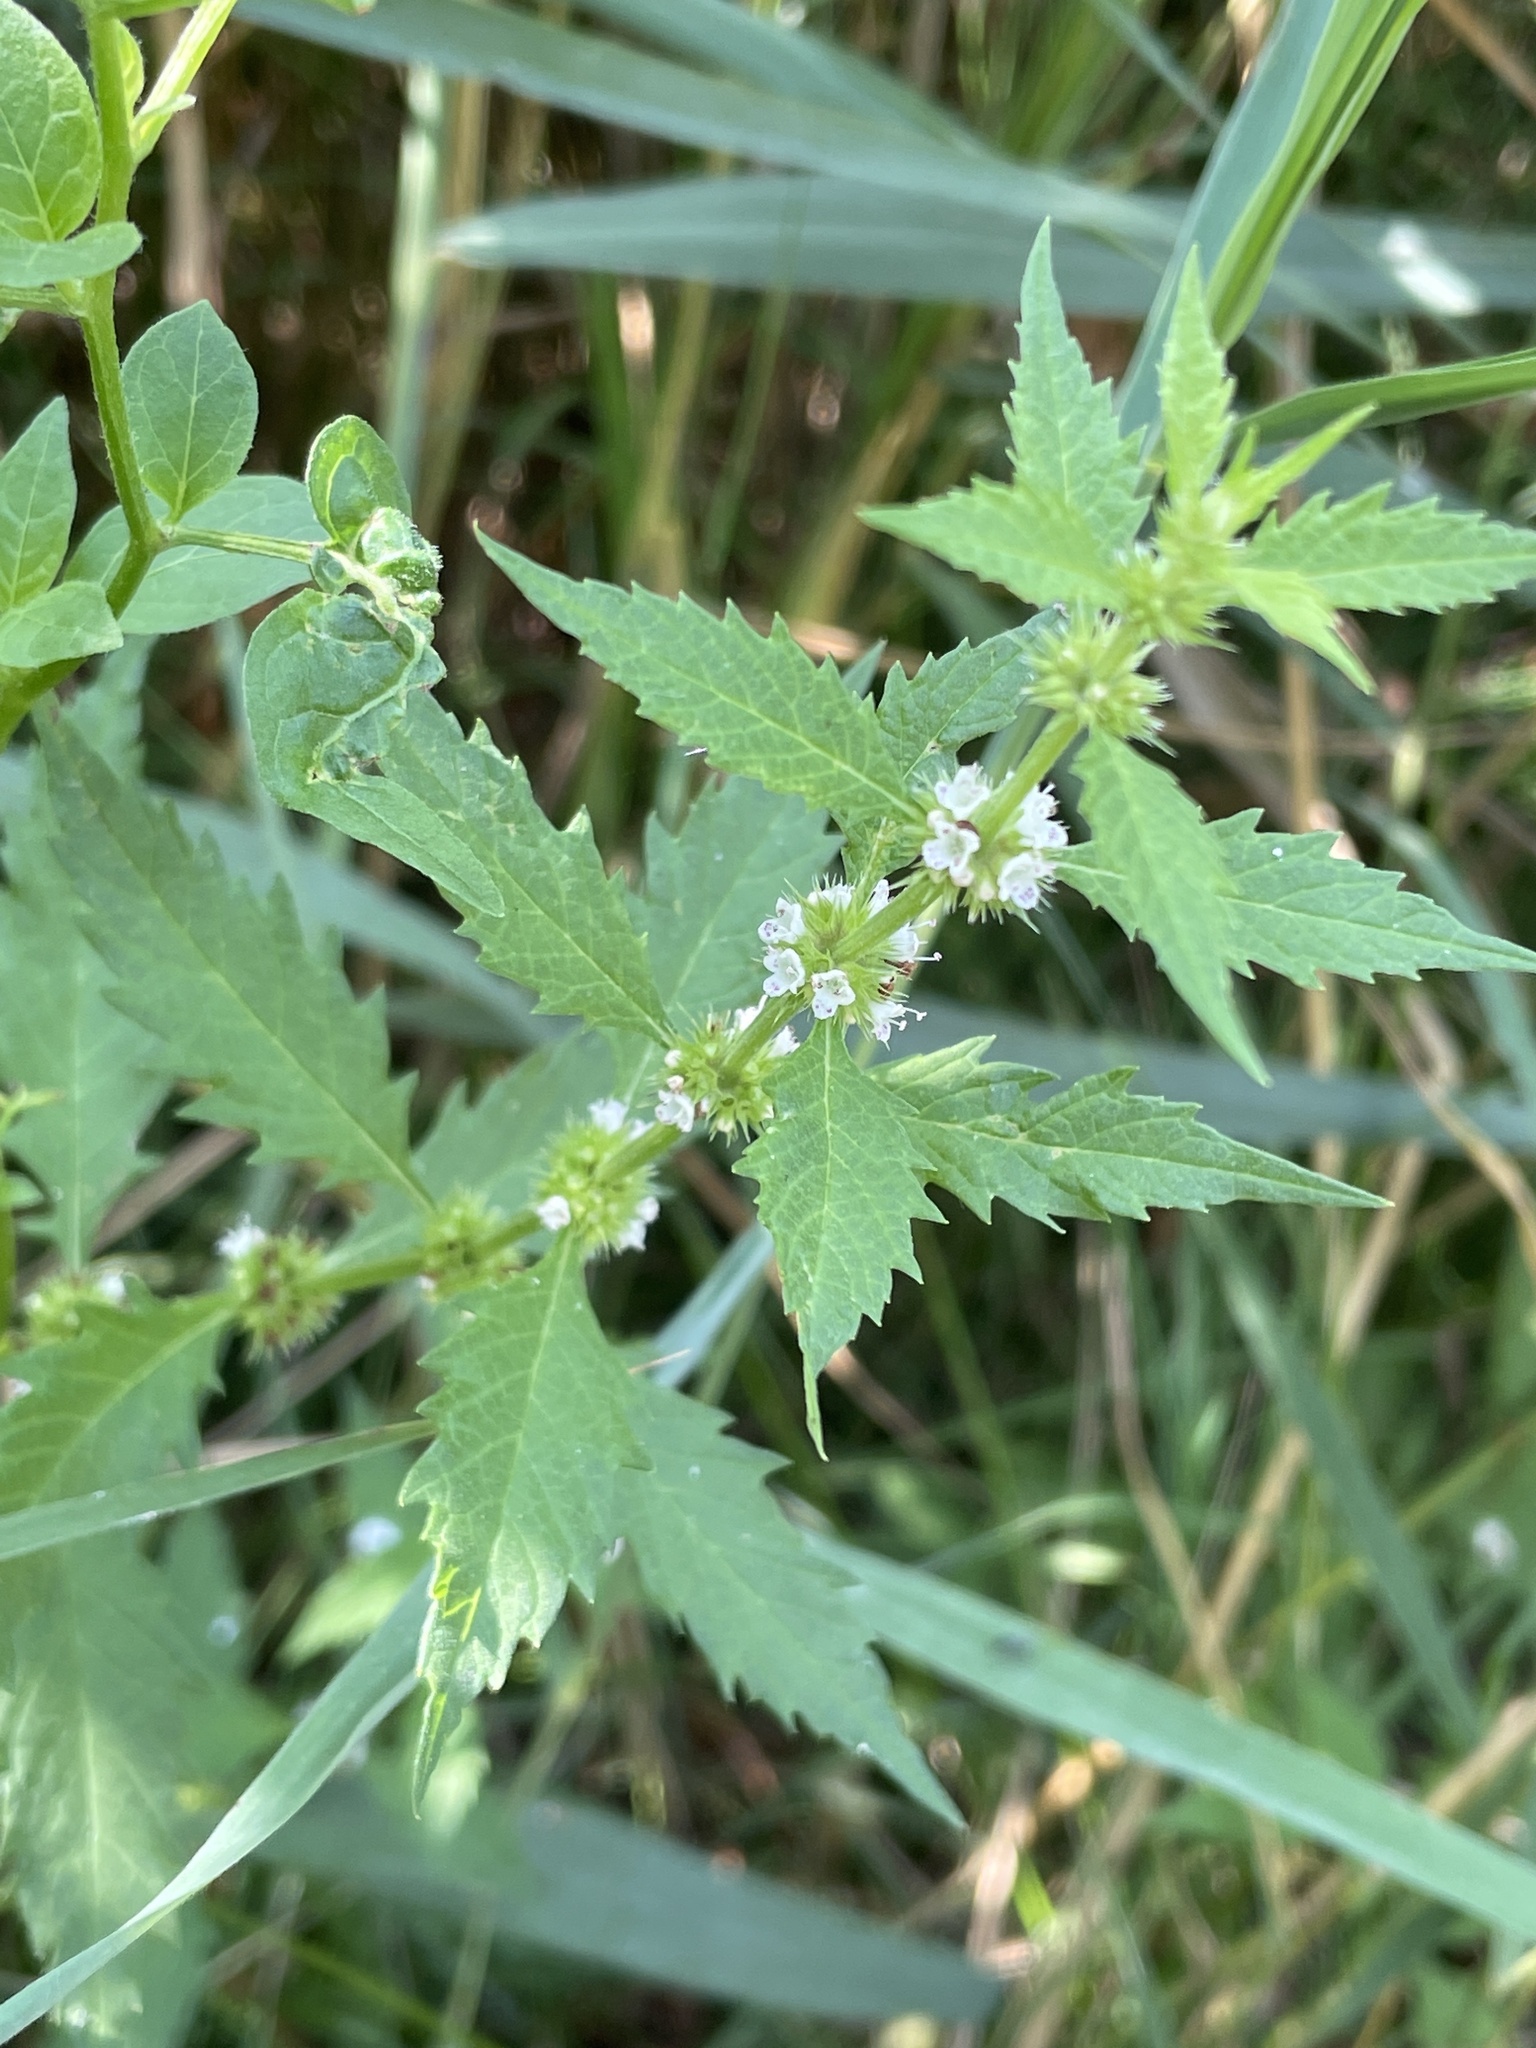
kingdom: Plantae
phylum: Tracheophyta
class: Magnoliopsida
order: Lamiales
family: Lamiaceae
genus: Lycopus
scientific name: Lycopus europaeus
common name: European bugleweed
